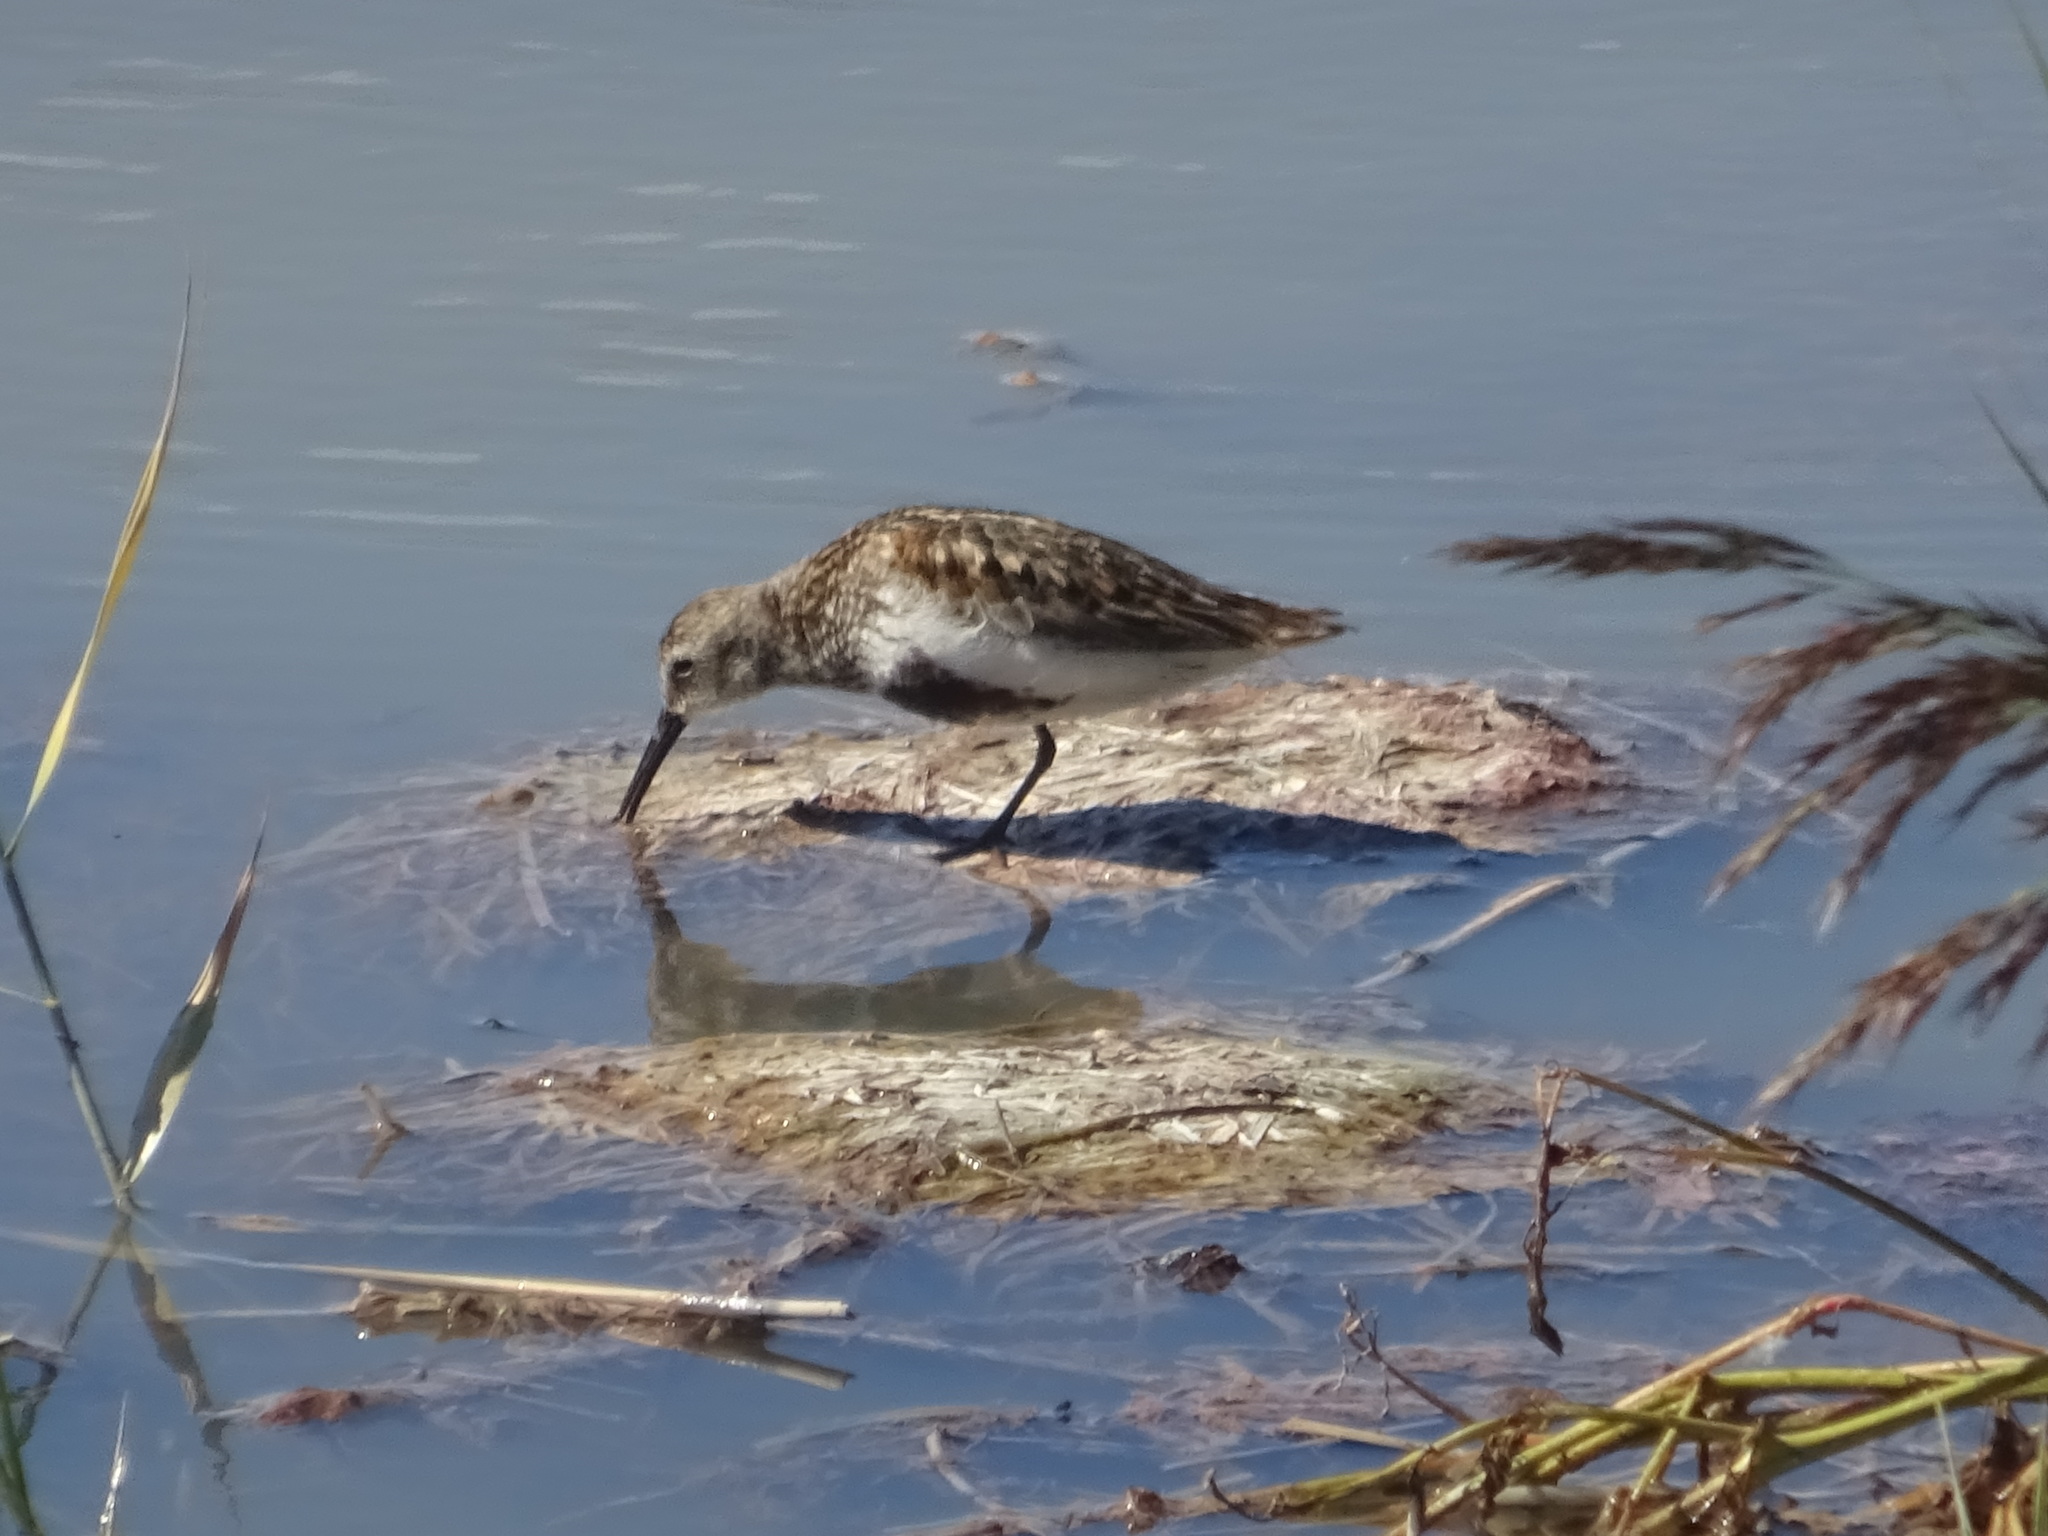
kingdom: Animalia
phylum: Chordata
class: Aves
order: Charadriiformes
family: Scolopacidae
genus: Calidris
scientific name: Calidris alpina
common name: Dunlin
